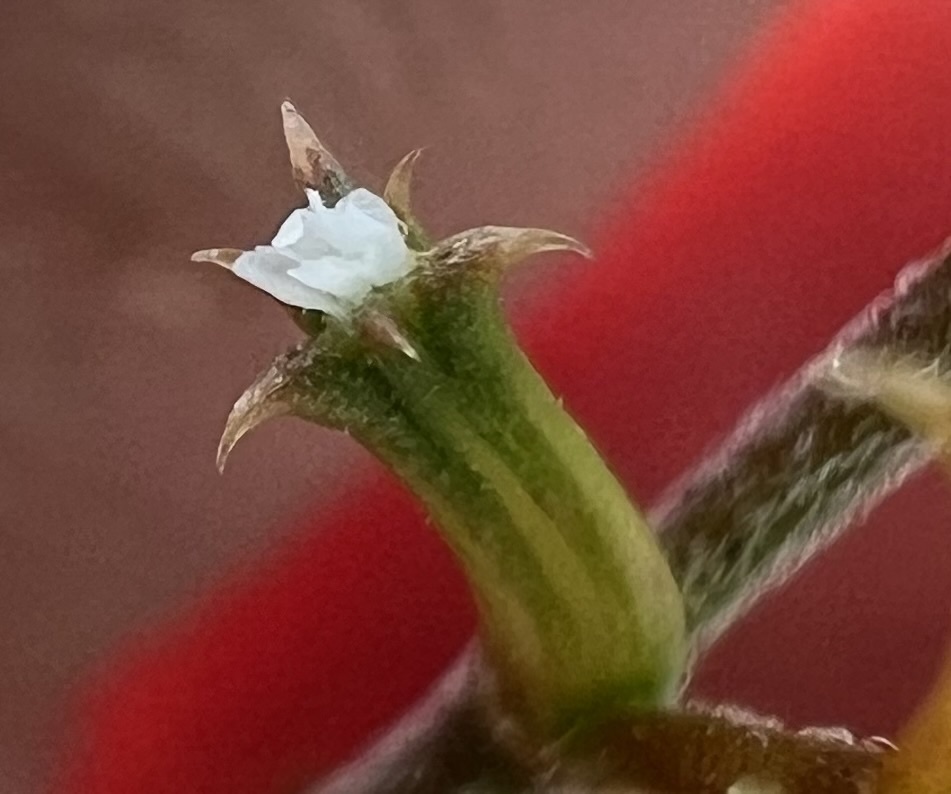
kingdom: Plantae
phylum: Tracheophyta
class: Magnoliopsida
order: Caryophyllales
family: Polygonaceae
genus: Chorizanthe
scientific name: Chorizanthe brevicornu
